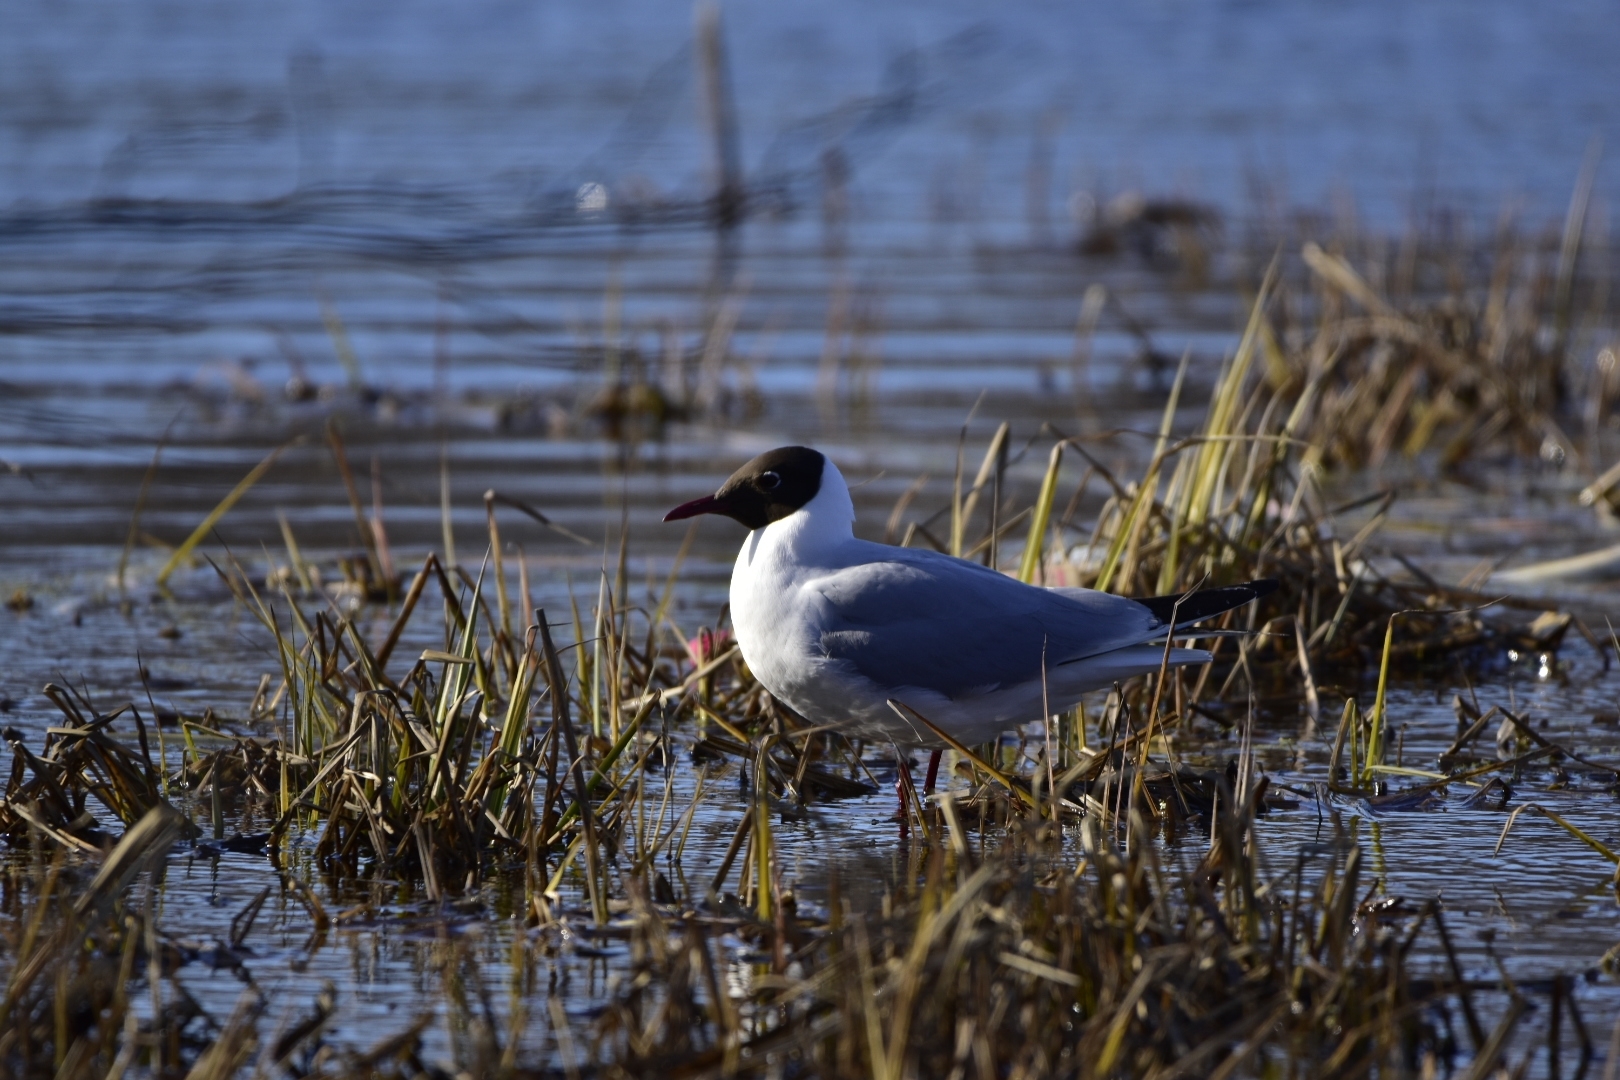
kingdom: Animalia
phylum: Chordata
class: Aves
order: Charadriiformes
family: Laridae
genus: Chroicocephalus
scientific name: Chroicocephalus ridibundus
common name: Black-headed gull
